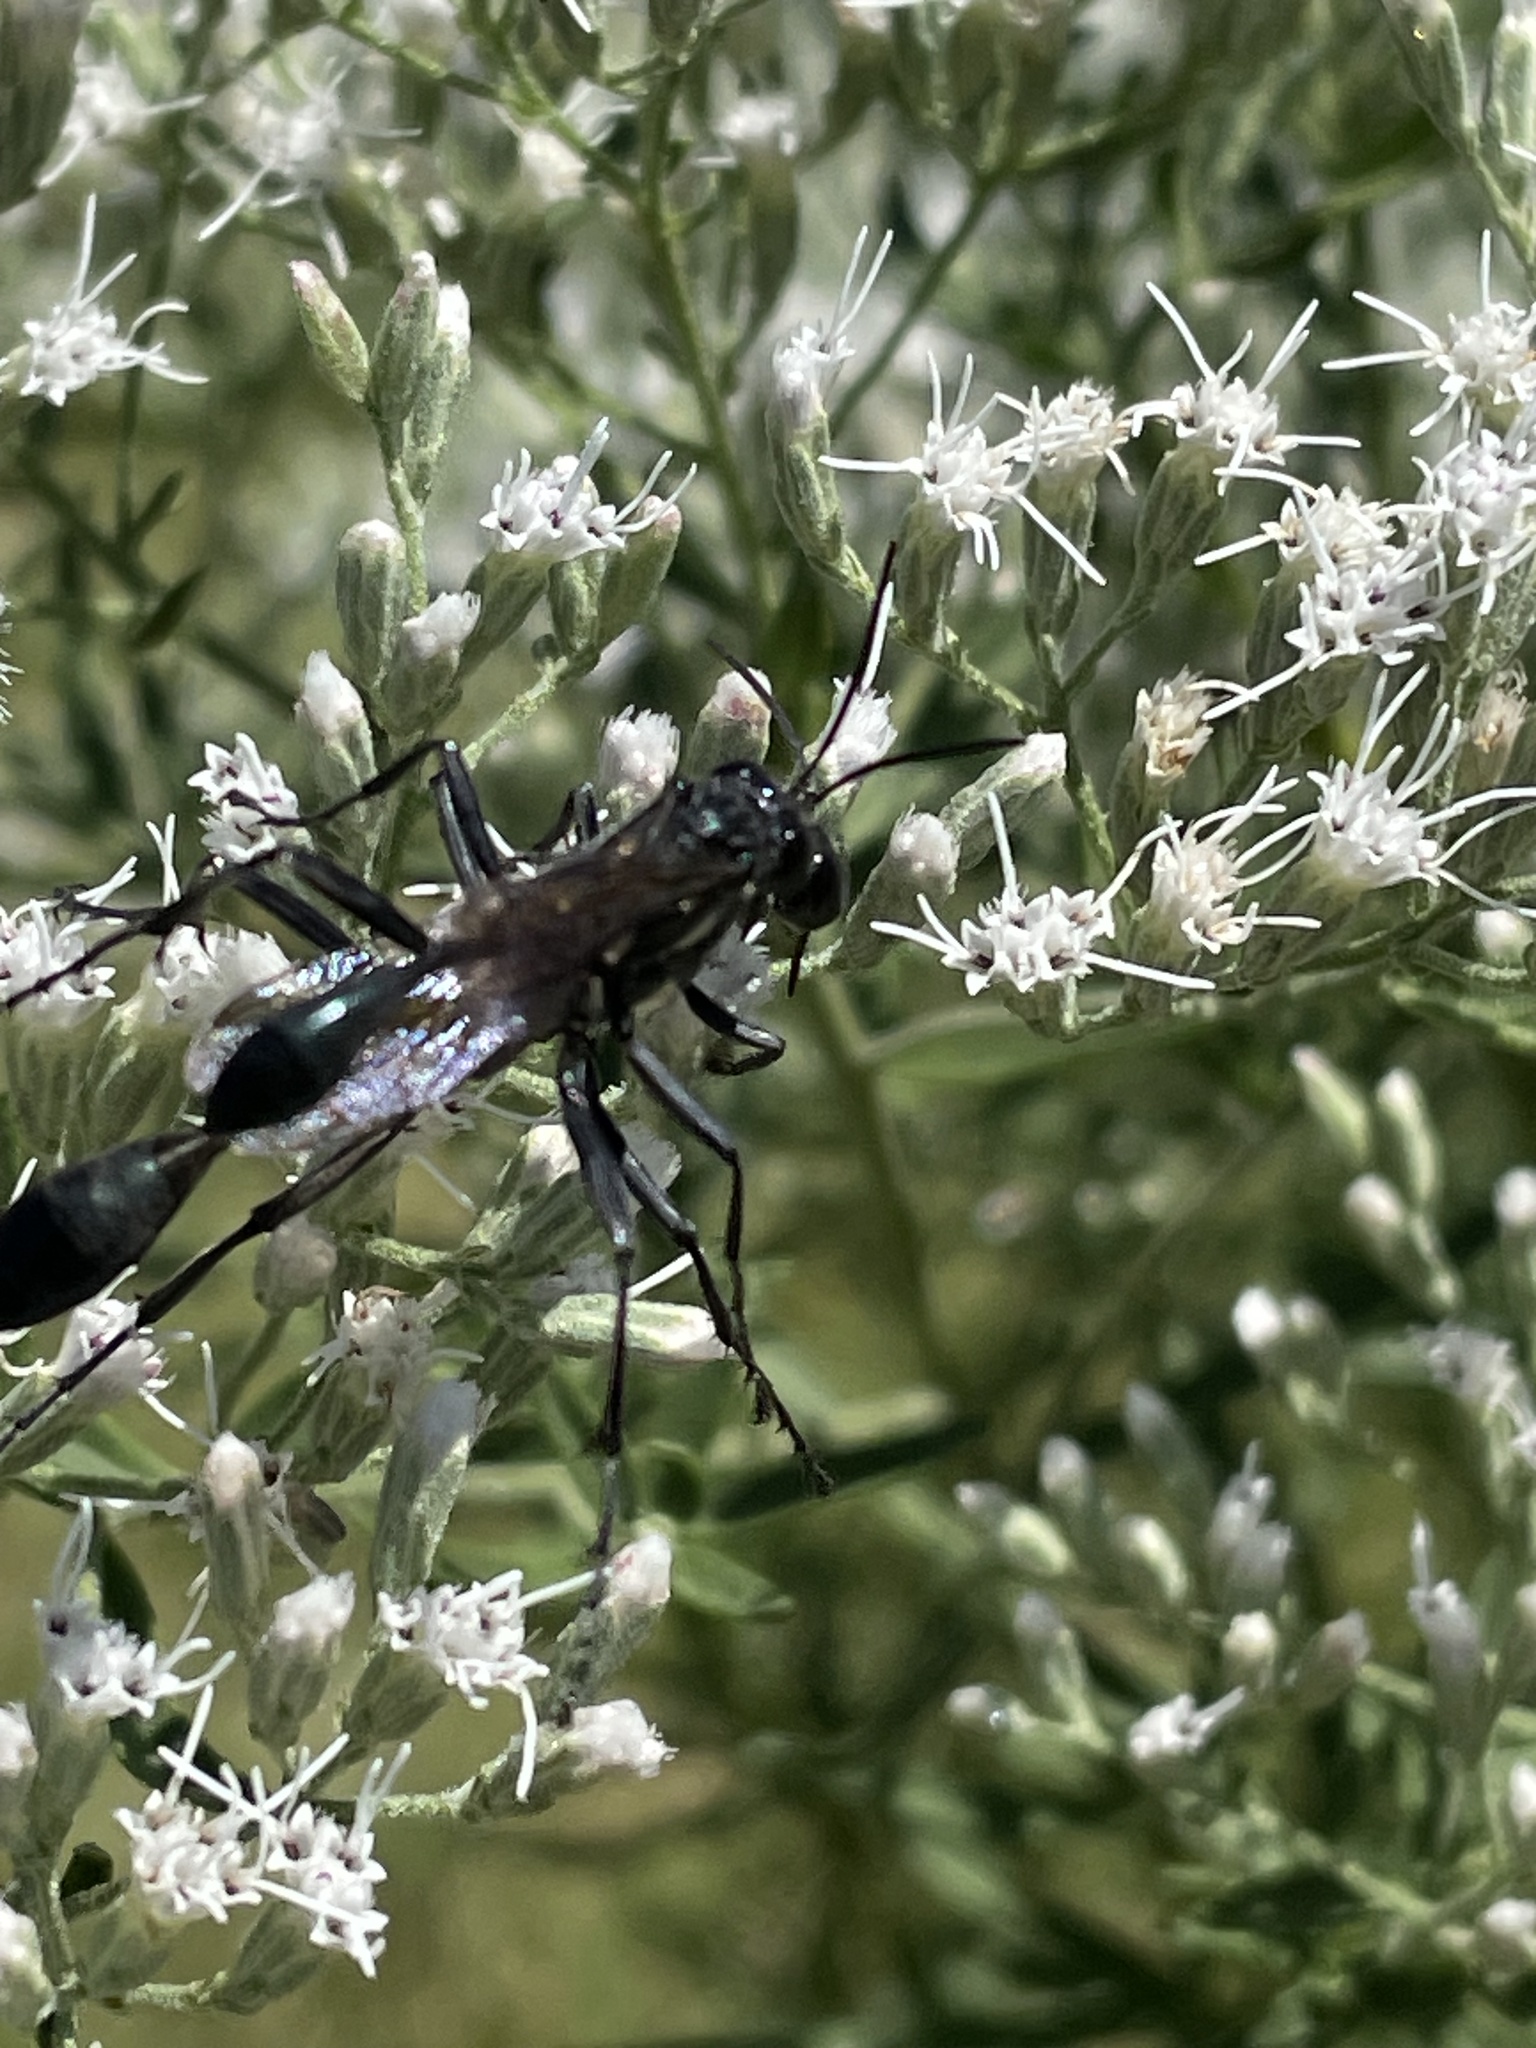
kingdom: Animalia
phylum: Arthropoda
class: Insecta
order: Hymenoptera
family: Sphecidae
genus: Eremnophila
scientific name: Eremnophila aureonotata
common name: Gold-marked thread-waisted wasp
